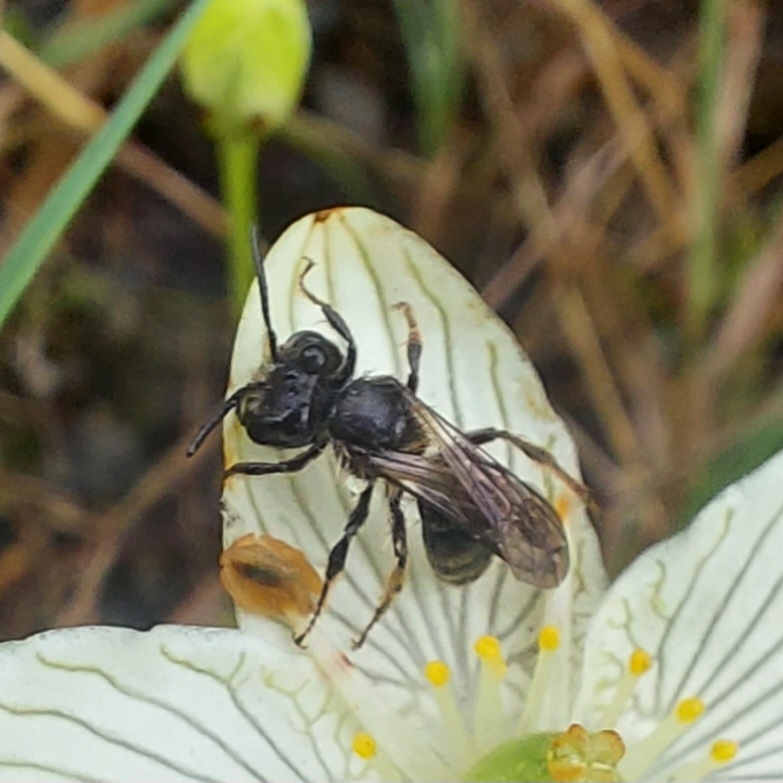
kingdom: Animalia
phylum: Arthropoda
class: Insecta
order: Hymenoptera
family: Andrenidae
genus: Andrena
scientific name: Andrena parnassiae
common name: Parnassia miner
